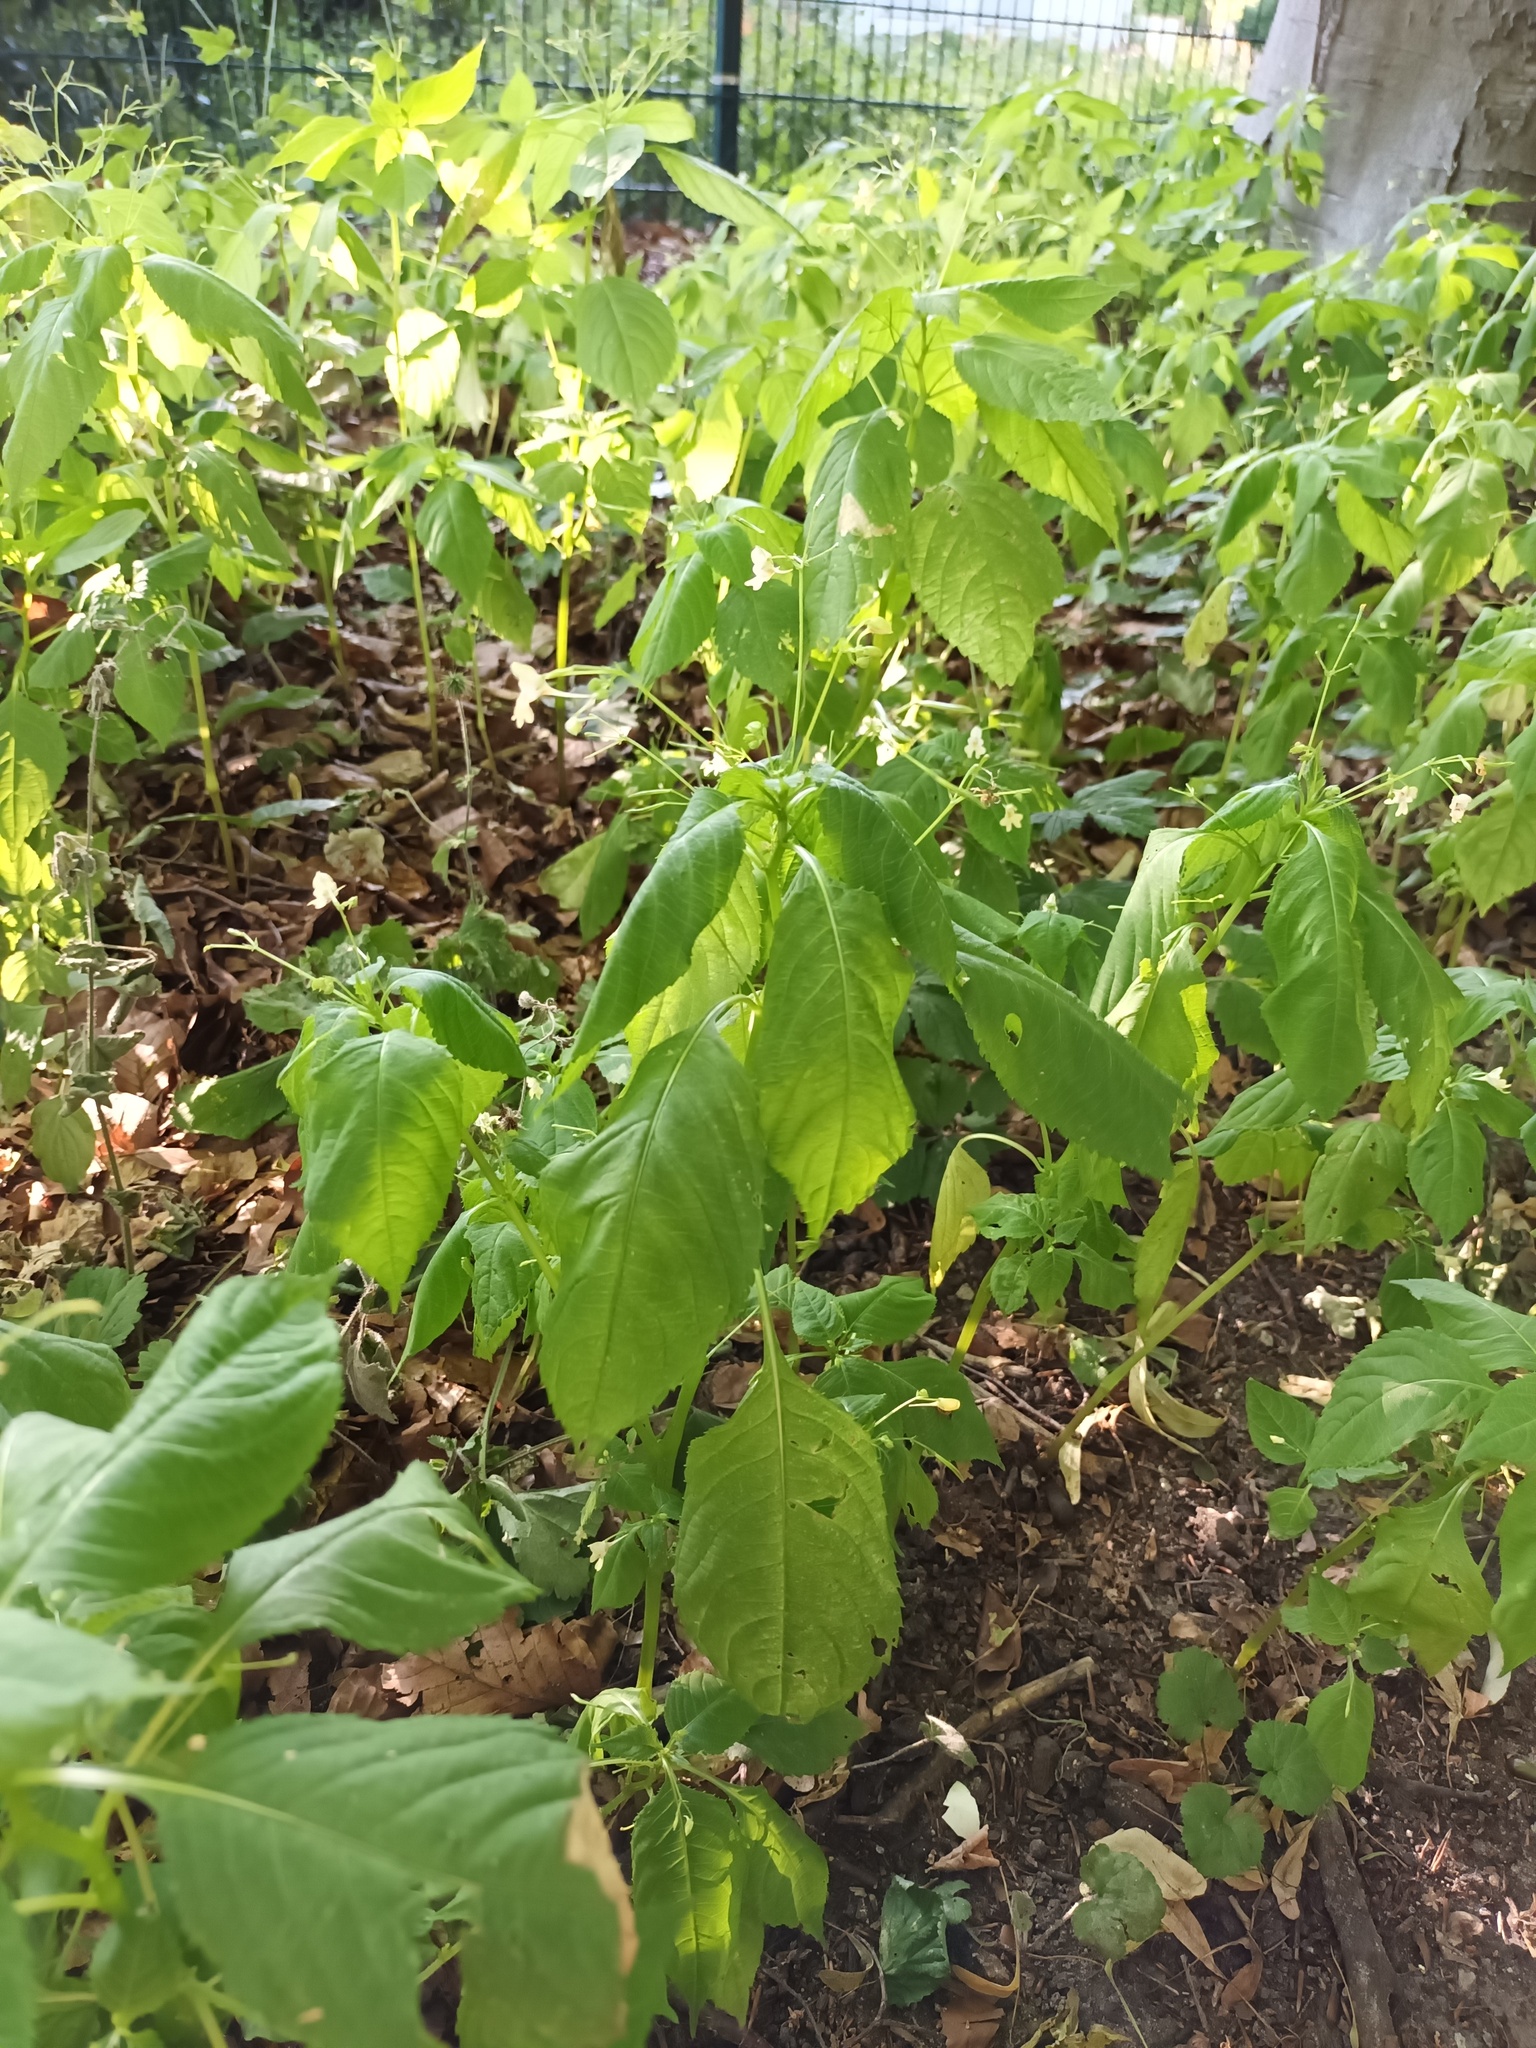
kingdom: Plantae
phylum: Tracheophyta
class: Magnoliopsida
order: Ericales
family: Balsaminaceae
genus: Impatiens
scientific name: Impatiens parviflora
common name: Small balsam
